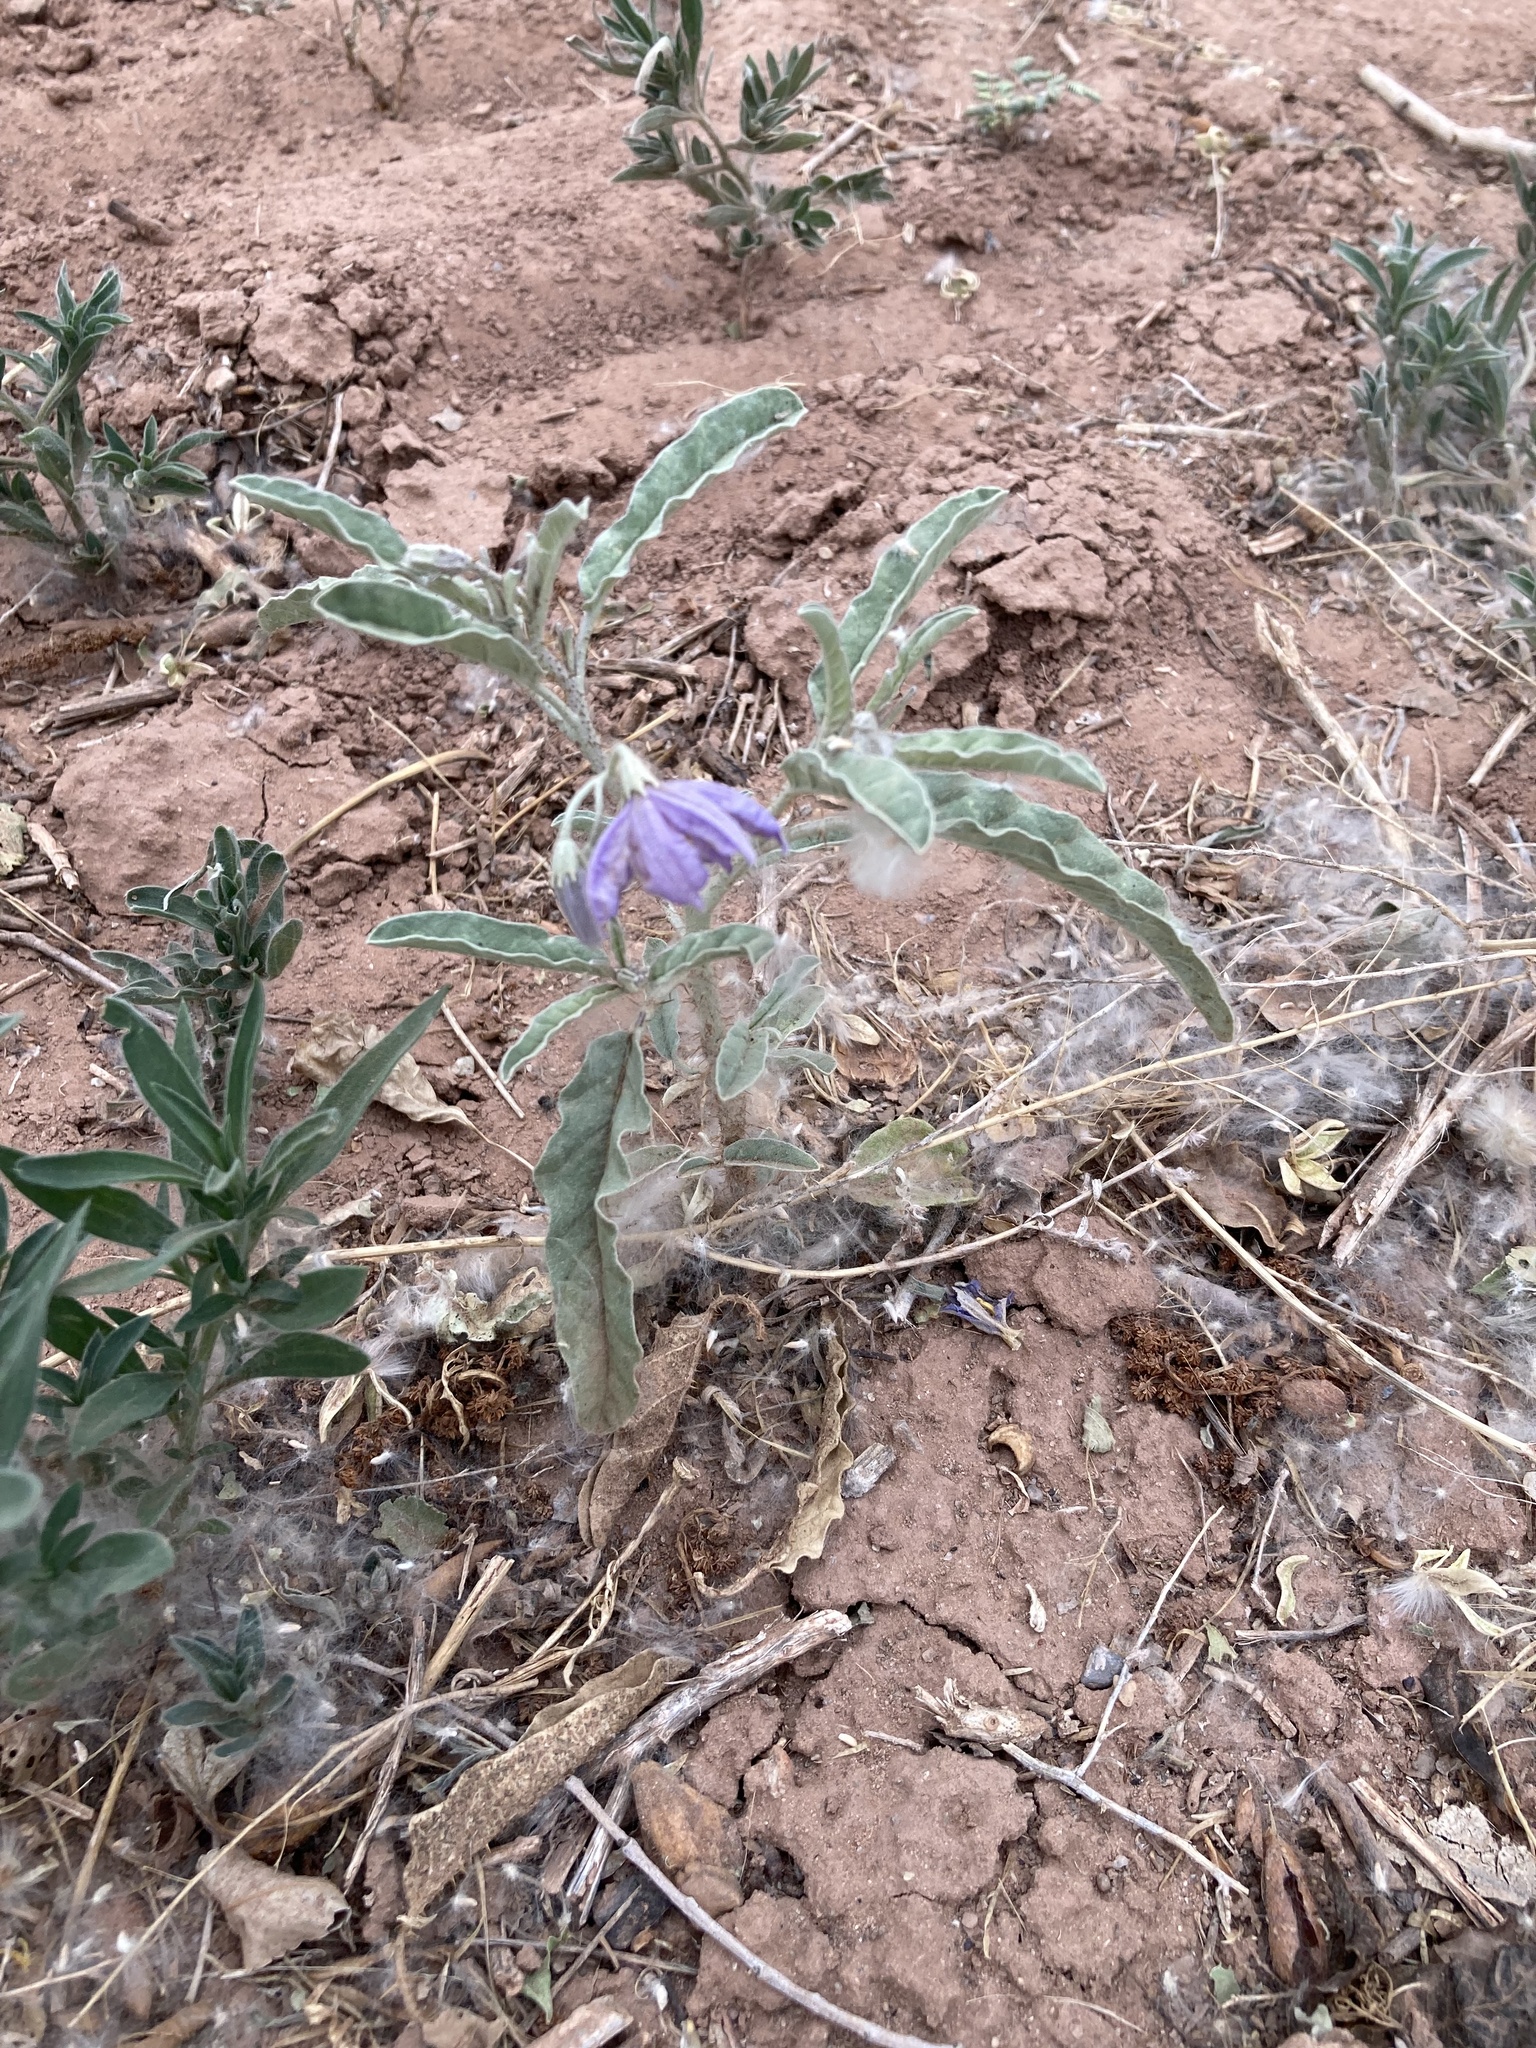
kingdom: Plantae
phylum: Tracheophyta
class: Magnoliopsida
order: Solanales
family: Solanaceae
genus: Solanum
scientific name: Solanum elaeagnifolium
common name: Silverleaf nightshade
